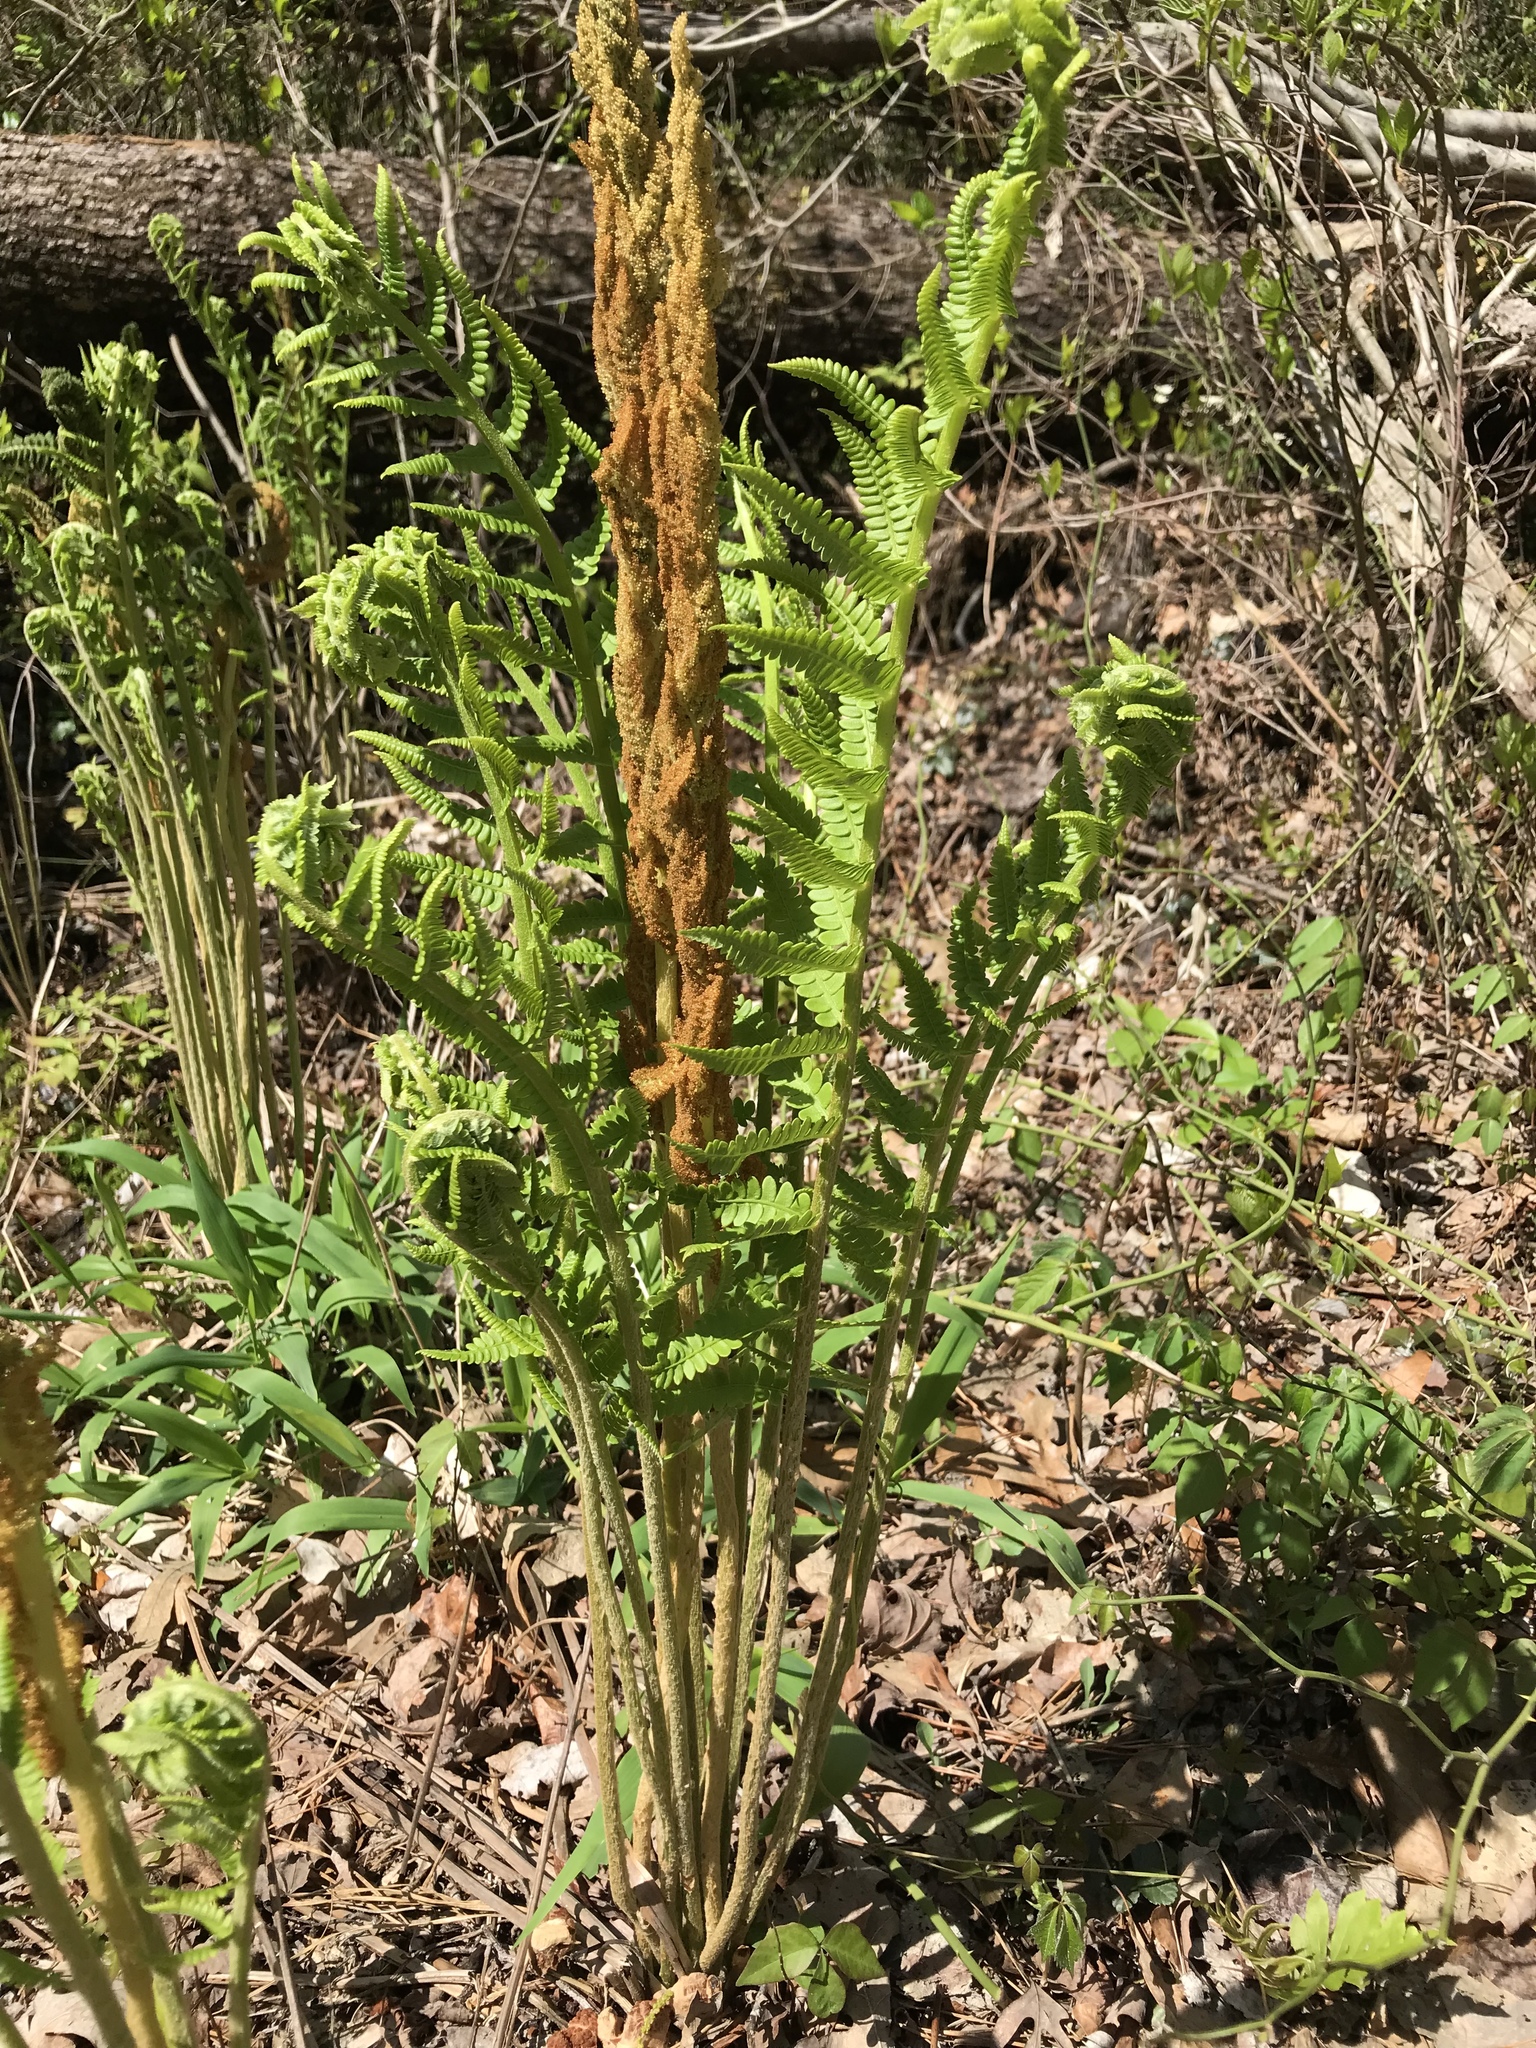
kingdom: Plantae
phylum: Tracheophyta
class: Polypodiopsida
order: Osmundales
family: Osmundaceae
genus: Osmundastrum
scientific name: Osmundastrum cinnamomeum
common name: Cinnamon fern
